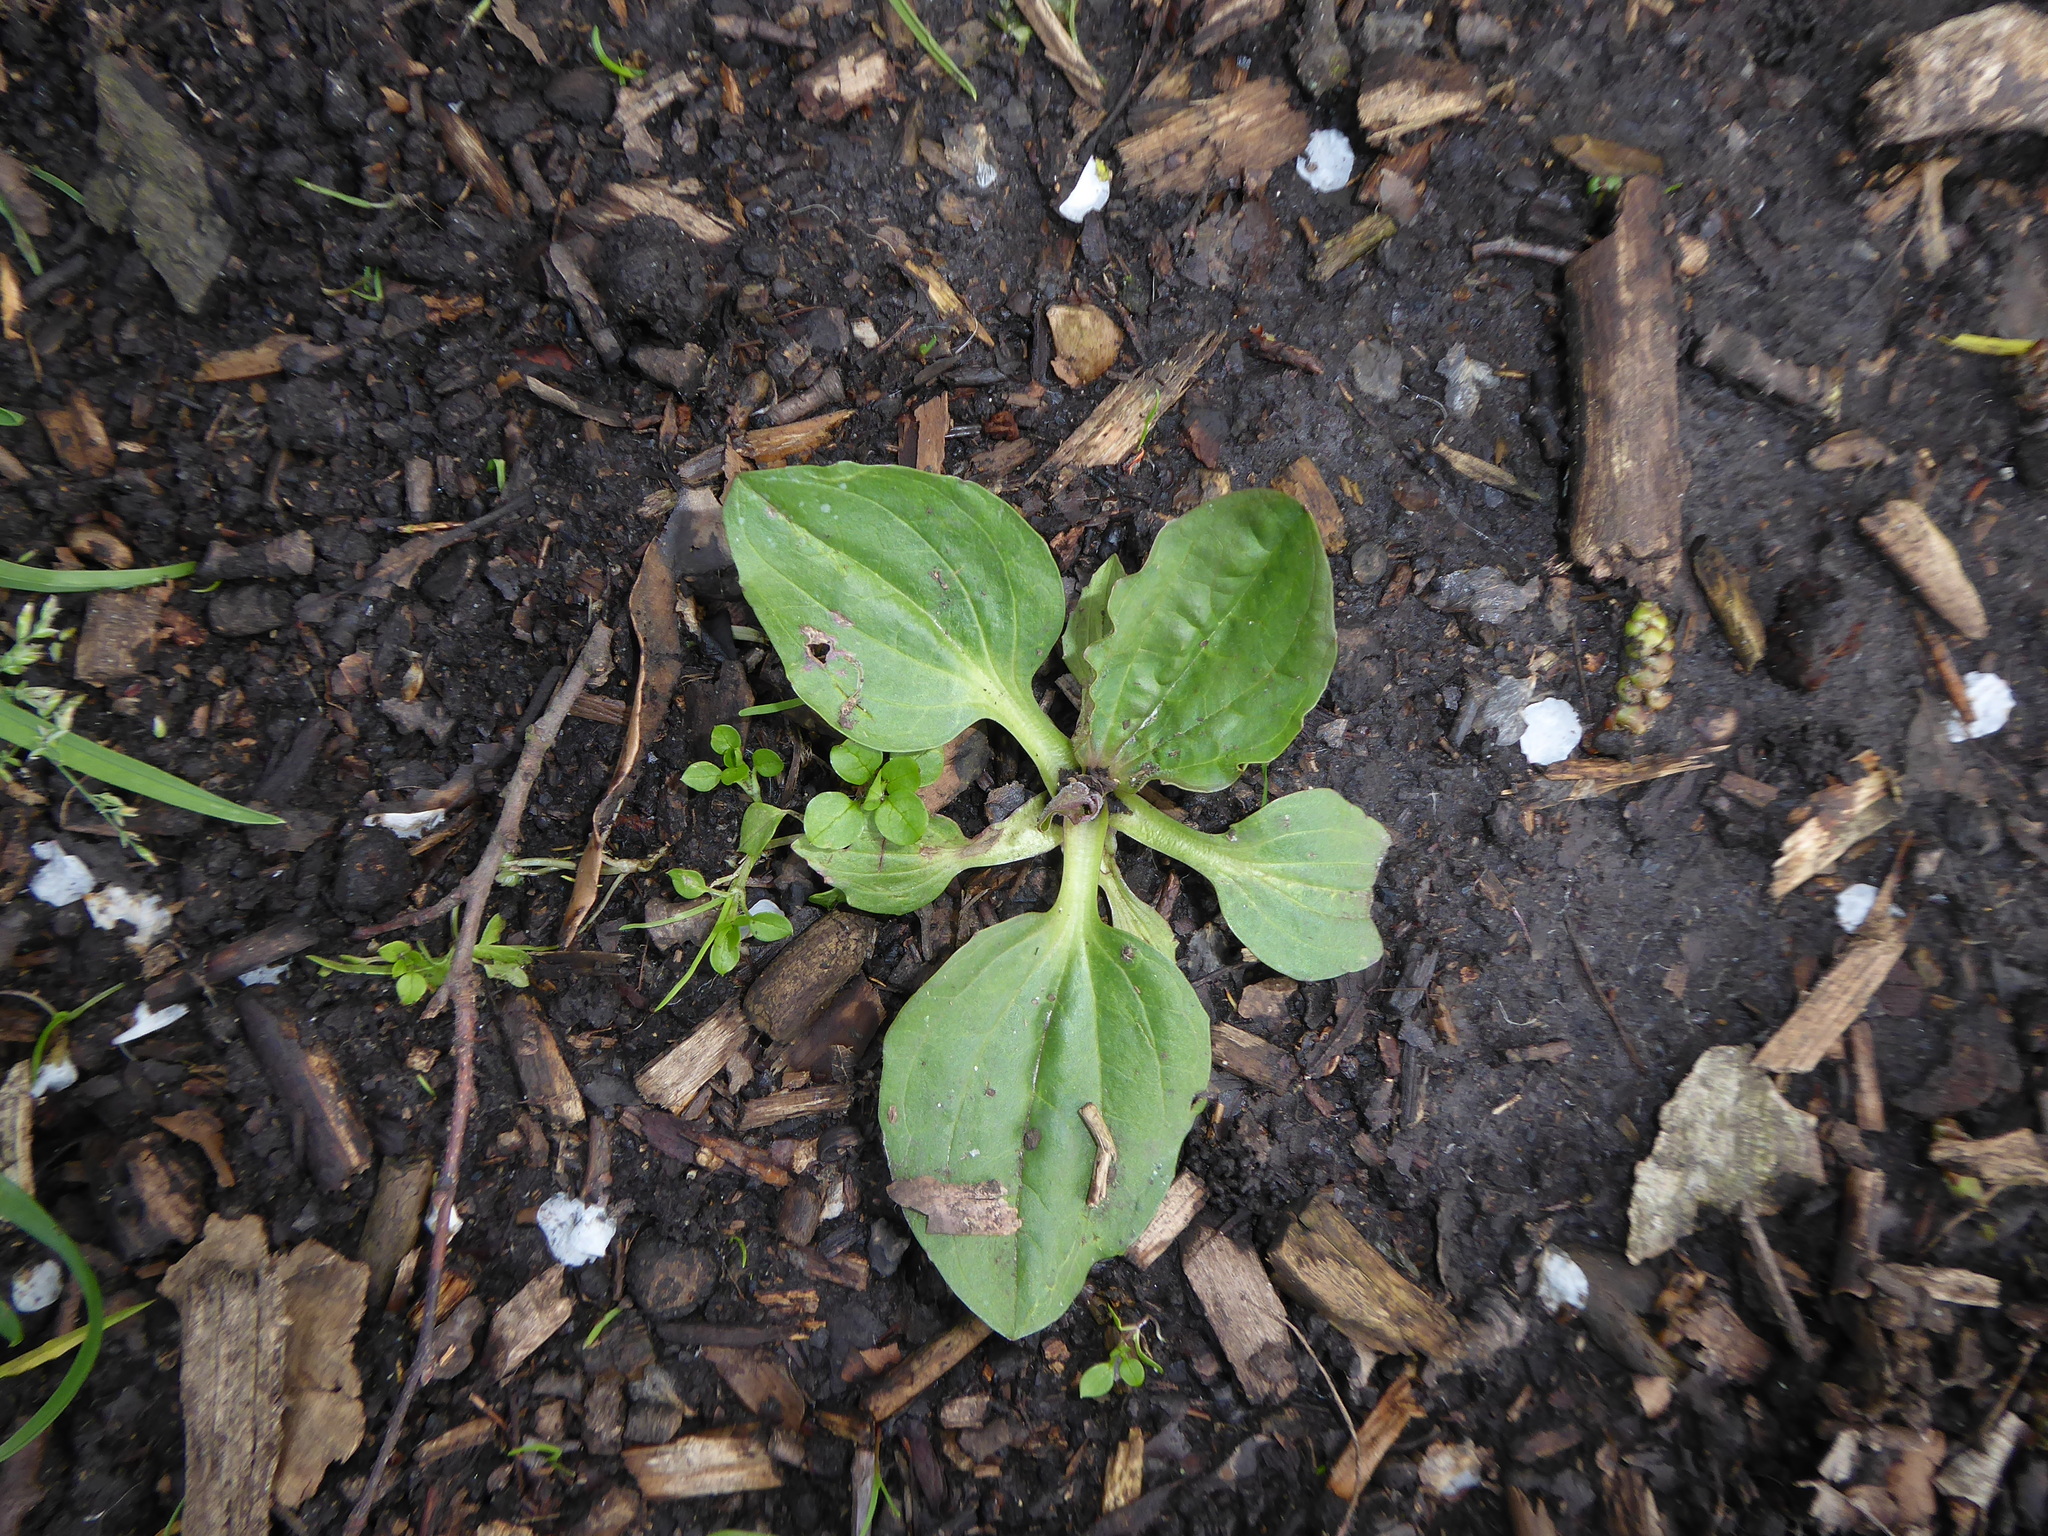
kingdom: Plantae
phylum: Tracheophyta
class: Magnoliopsida
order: Lamiales
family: Plantaginaceae
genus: Plantago
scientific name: Plantago major
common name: Common plantain
